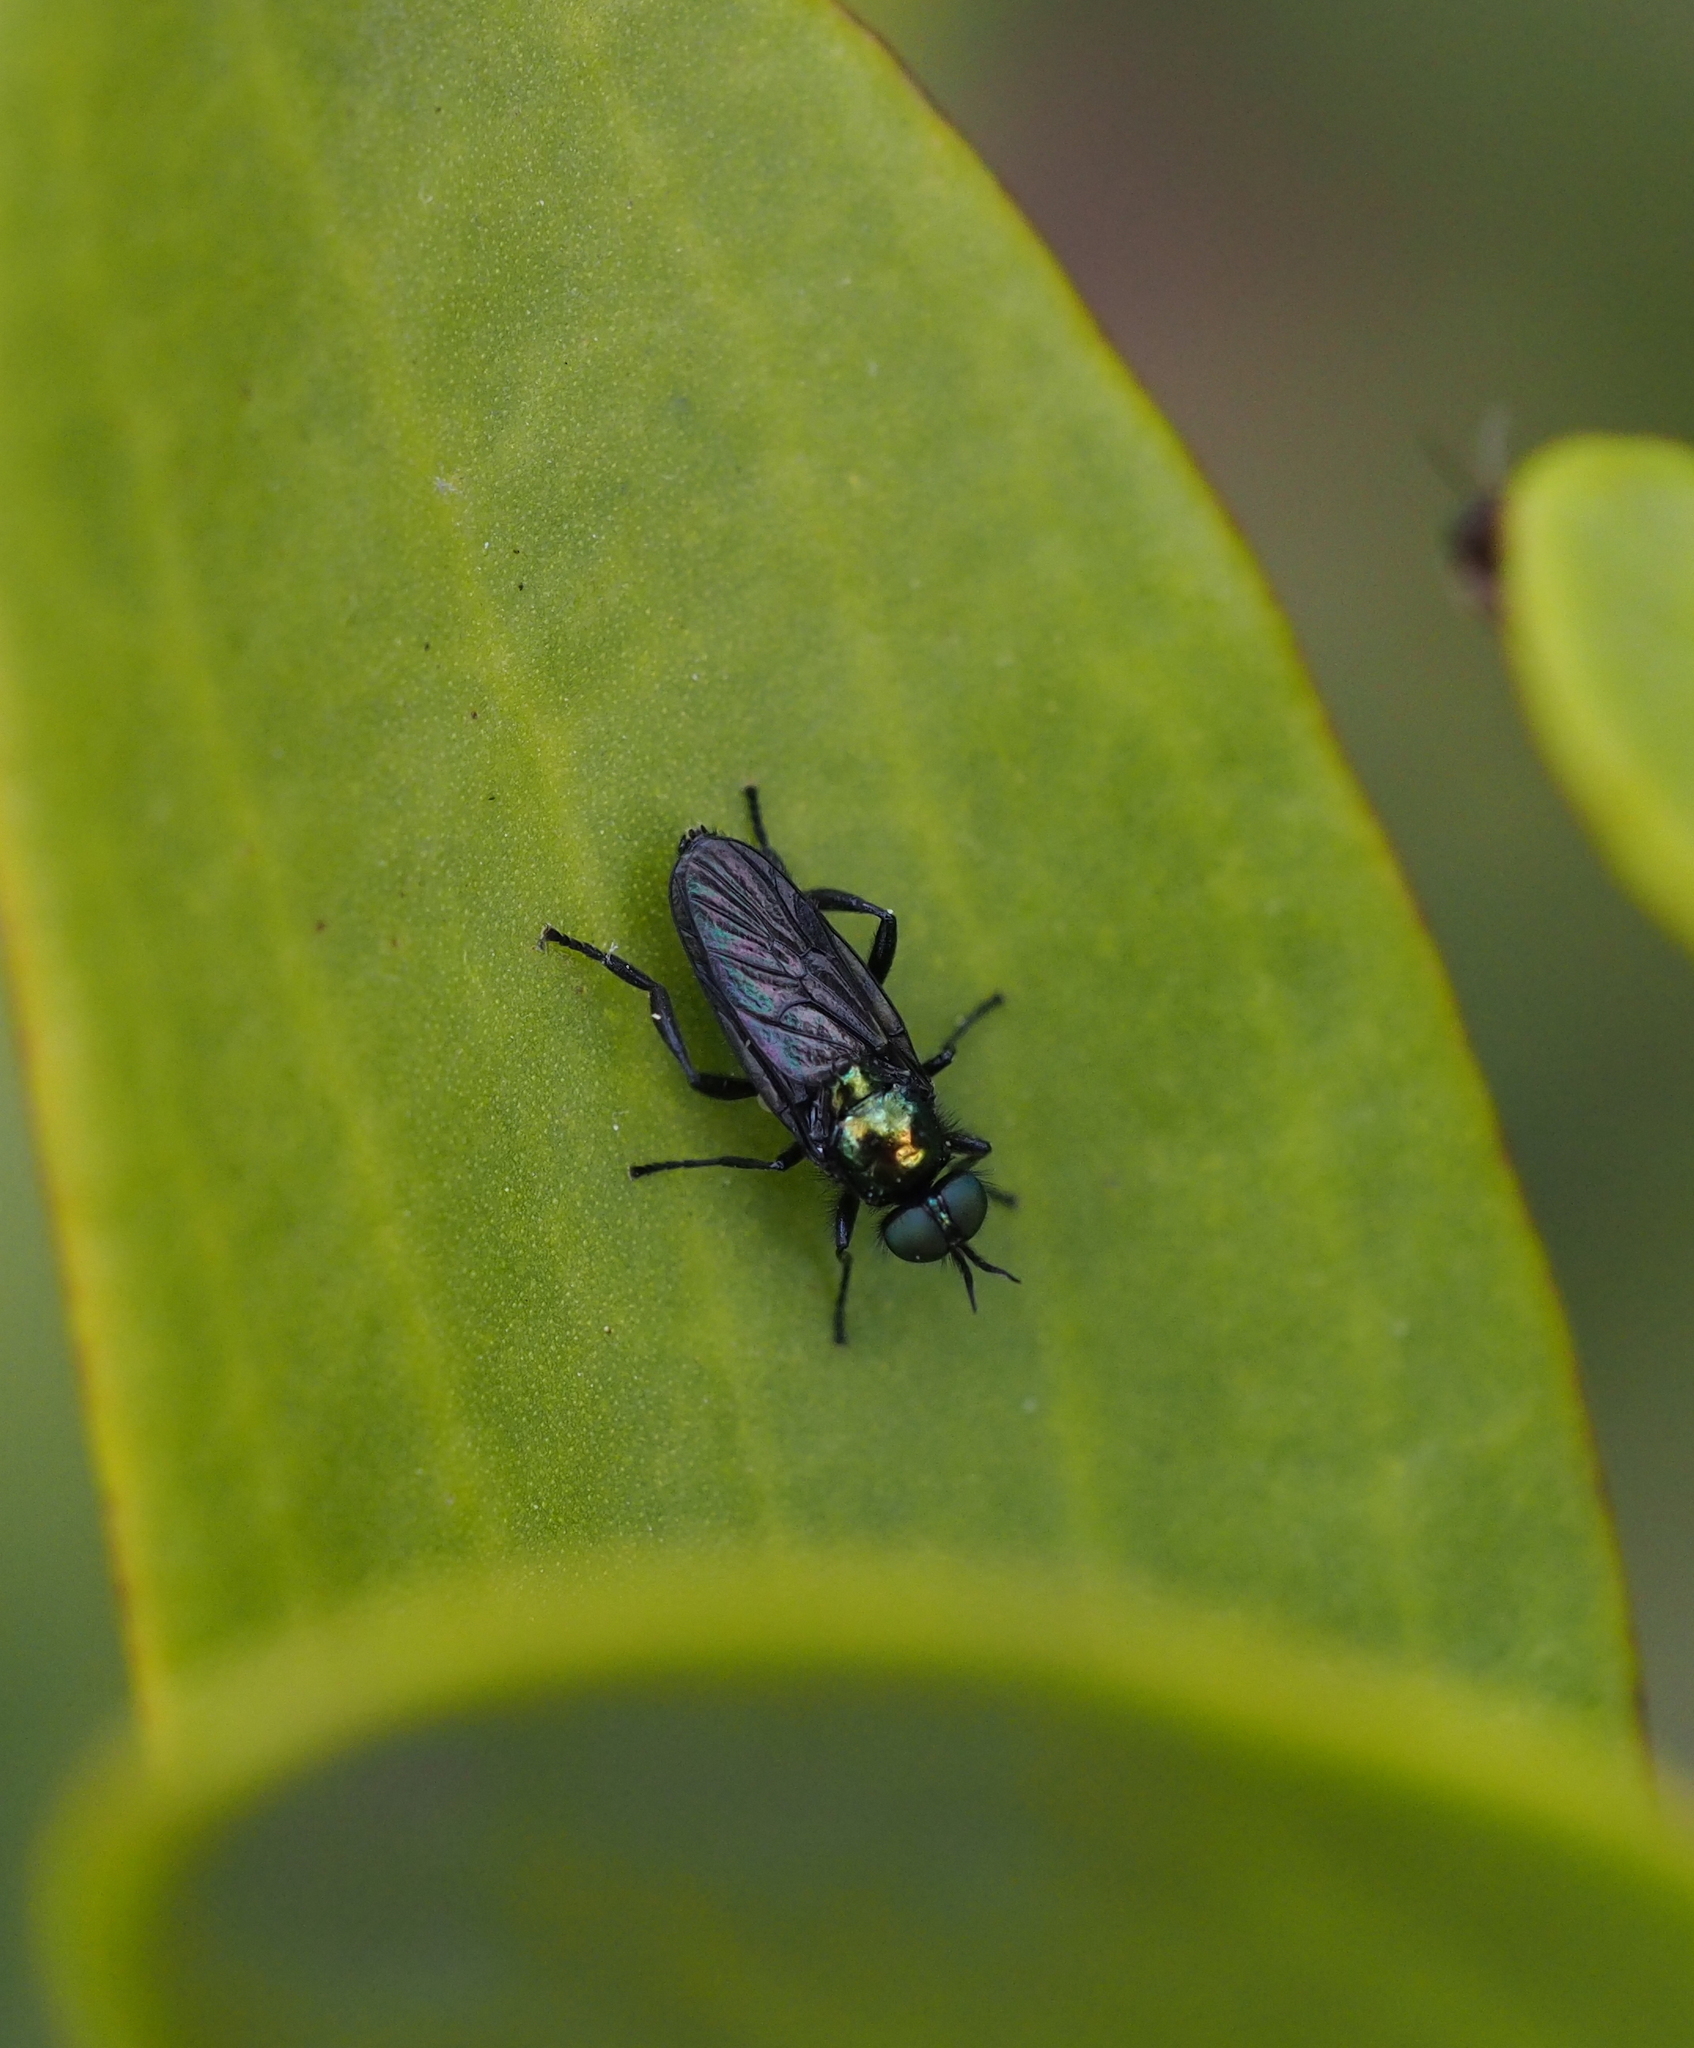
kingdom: Animalia
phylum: Arthropoda
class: Insecta
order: Diptera
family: Stratiomyidae
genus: Actina
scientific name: Actina chalybea
